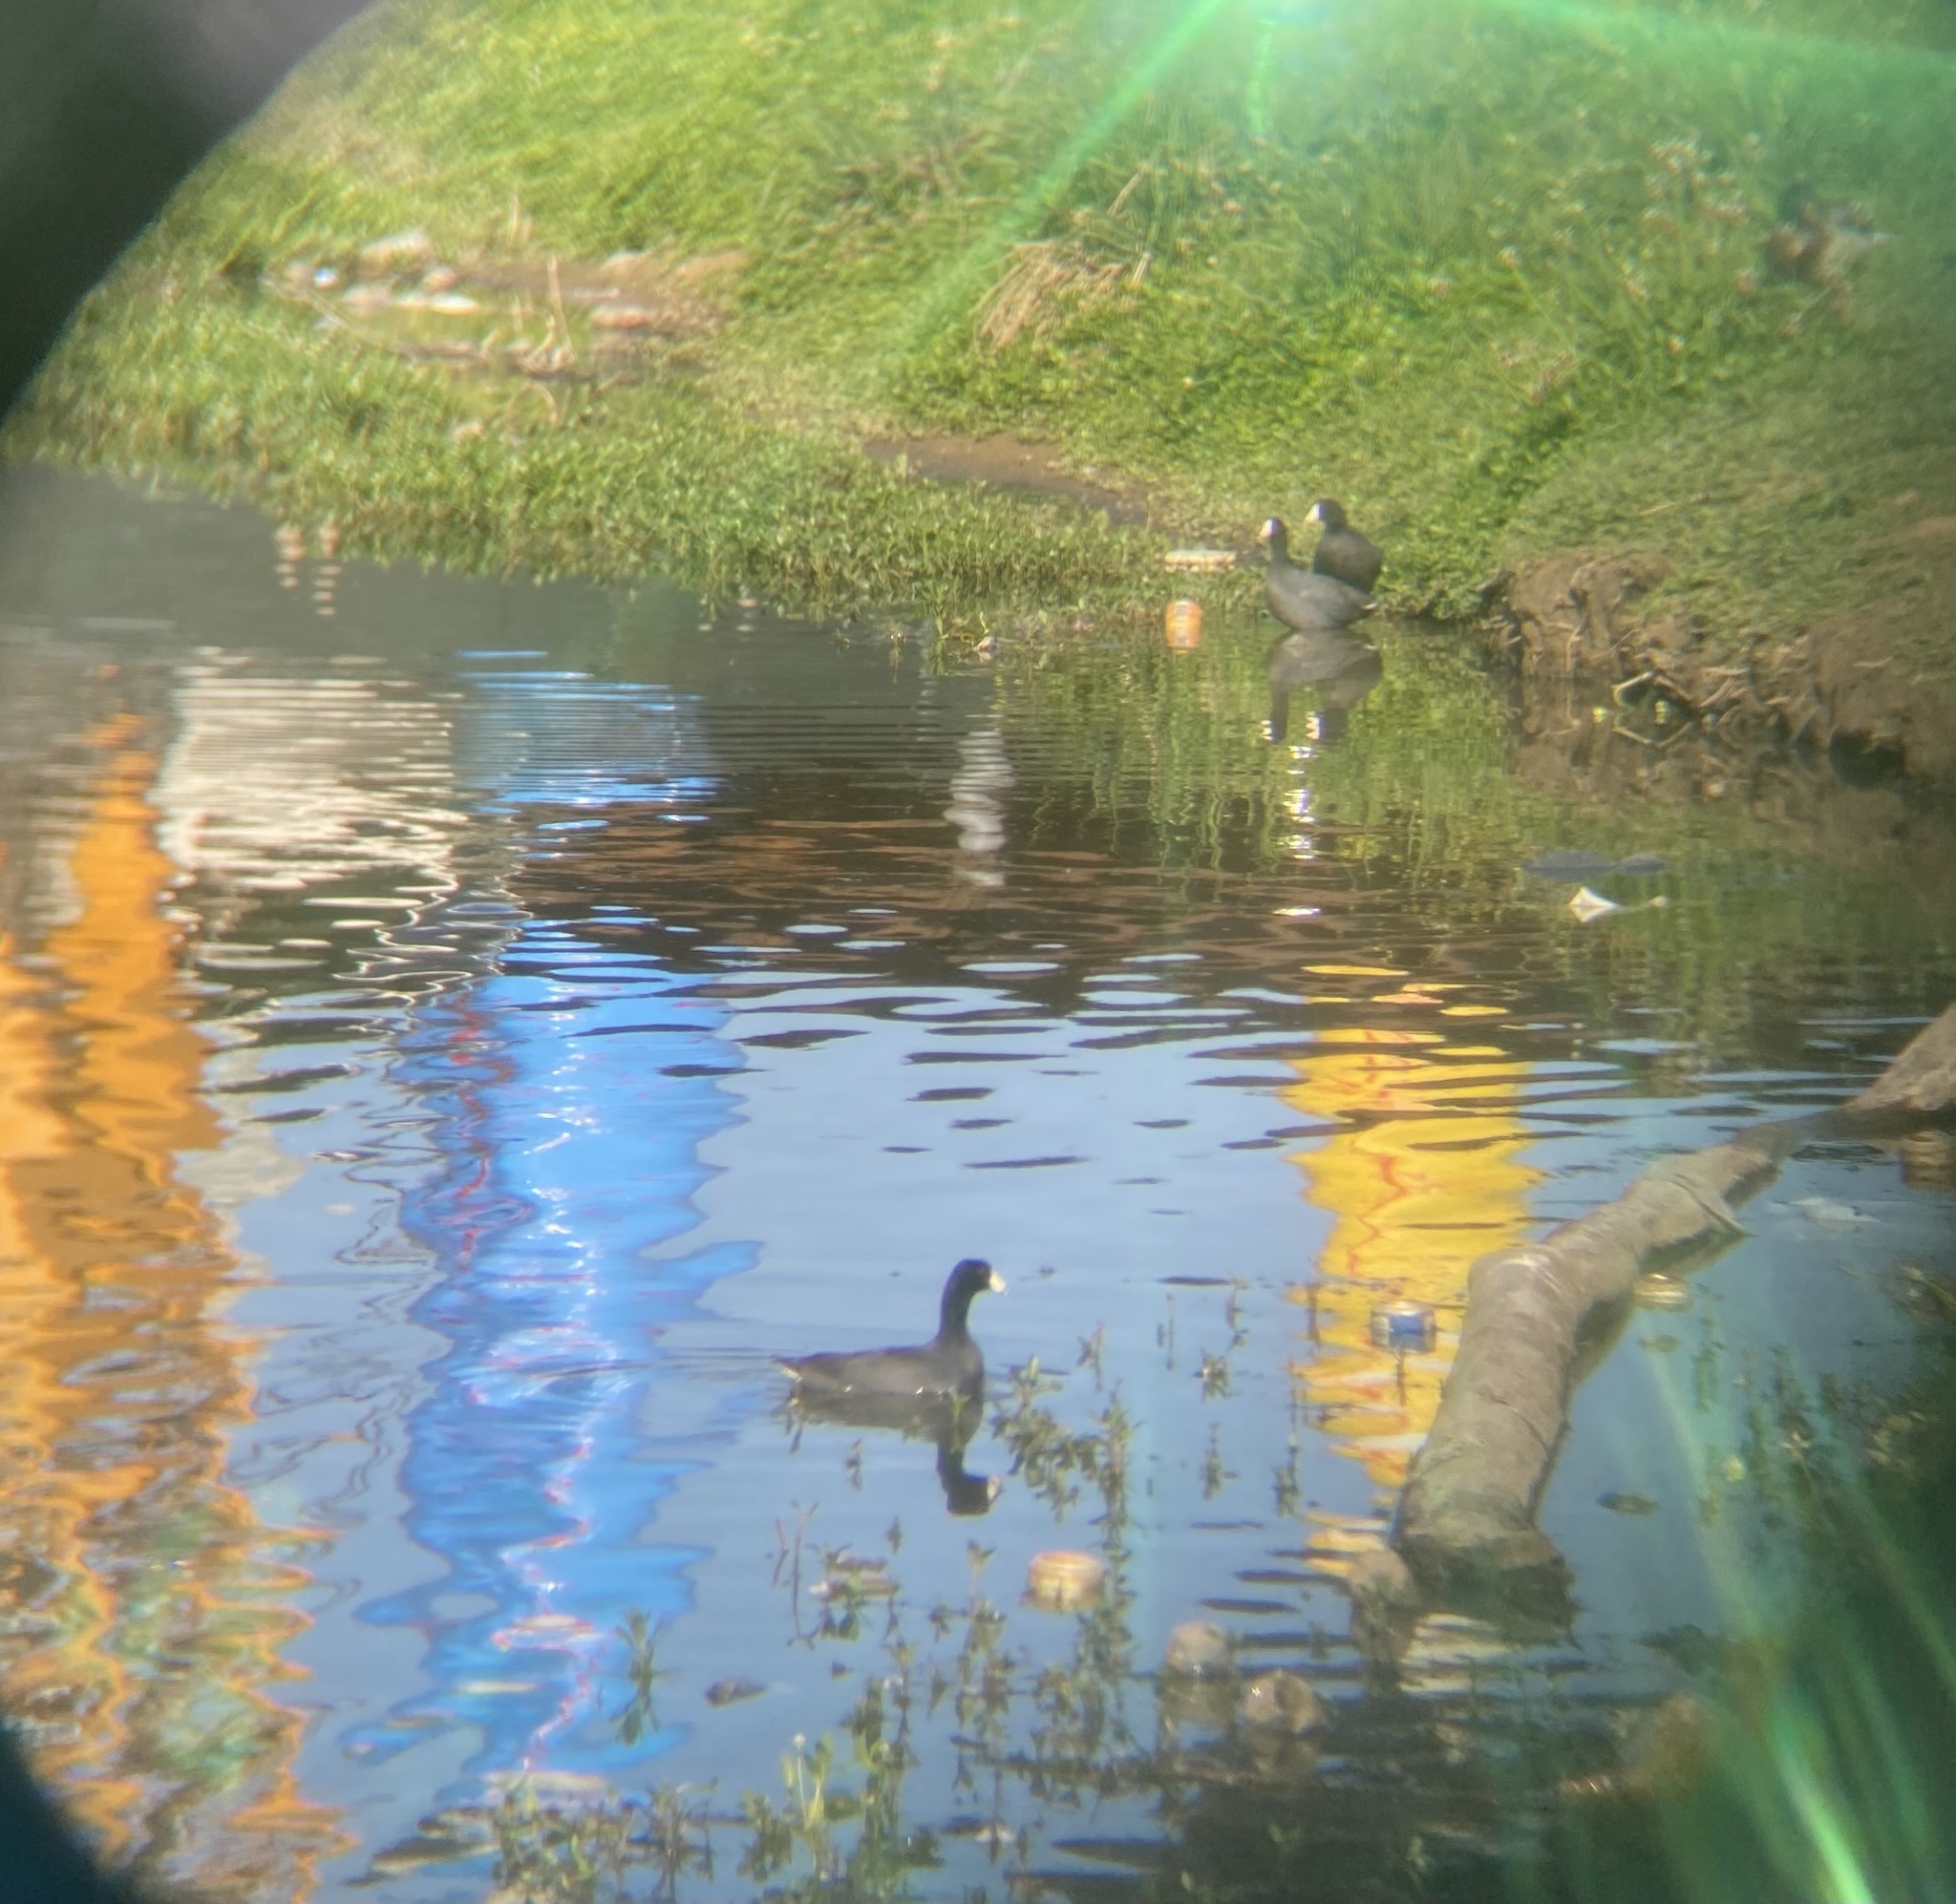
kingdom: Animalia
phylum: Chordata
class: Aves
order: Gruiformes
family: Rallidae
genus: Fulica
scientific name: Fulica americana
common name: American coot
